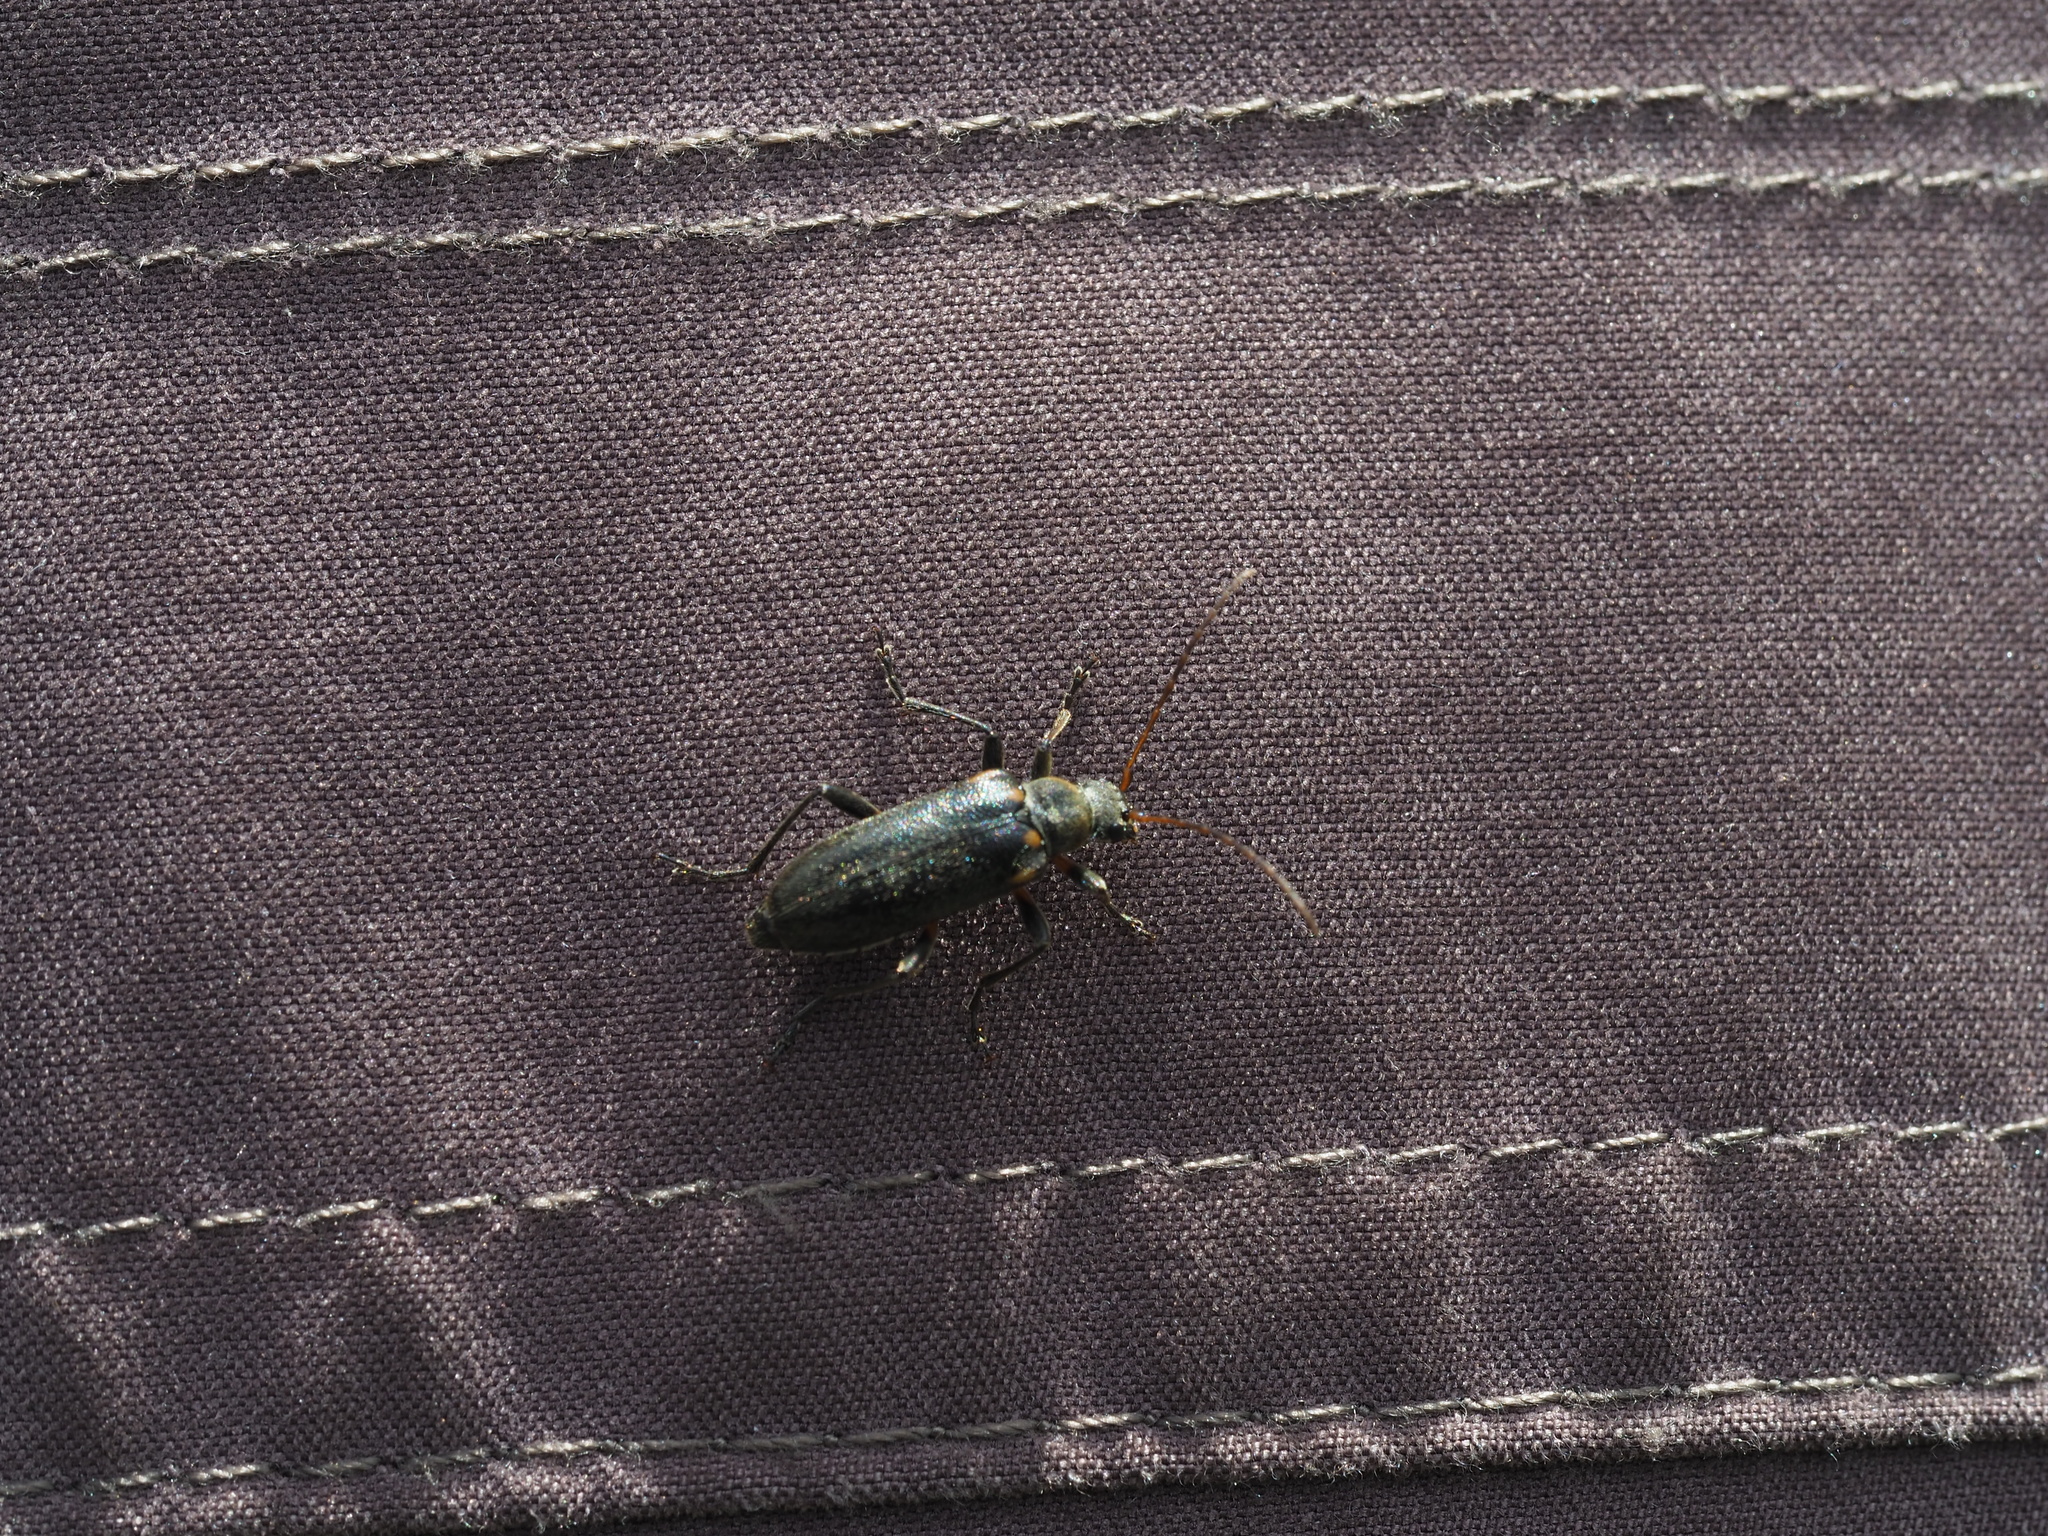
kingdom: Animalia
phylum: Arthropoda
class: Insecta
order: Coleoptera
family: Cerambycidae
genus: Cortodera
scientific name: Cortodera humeralis
